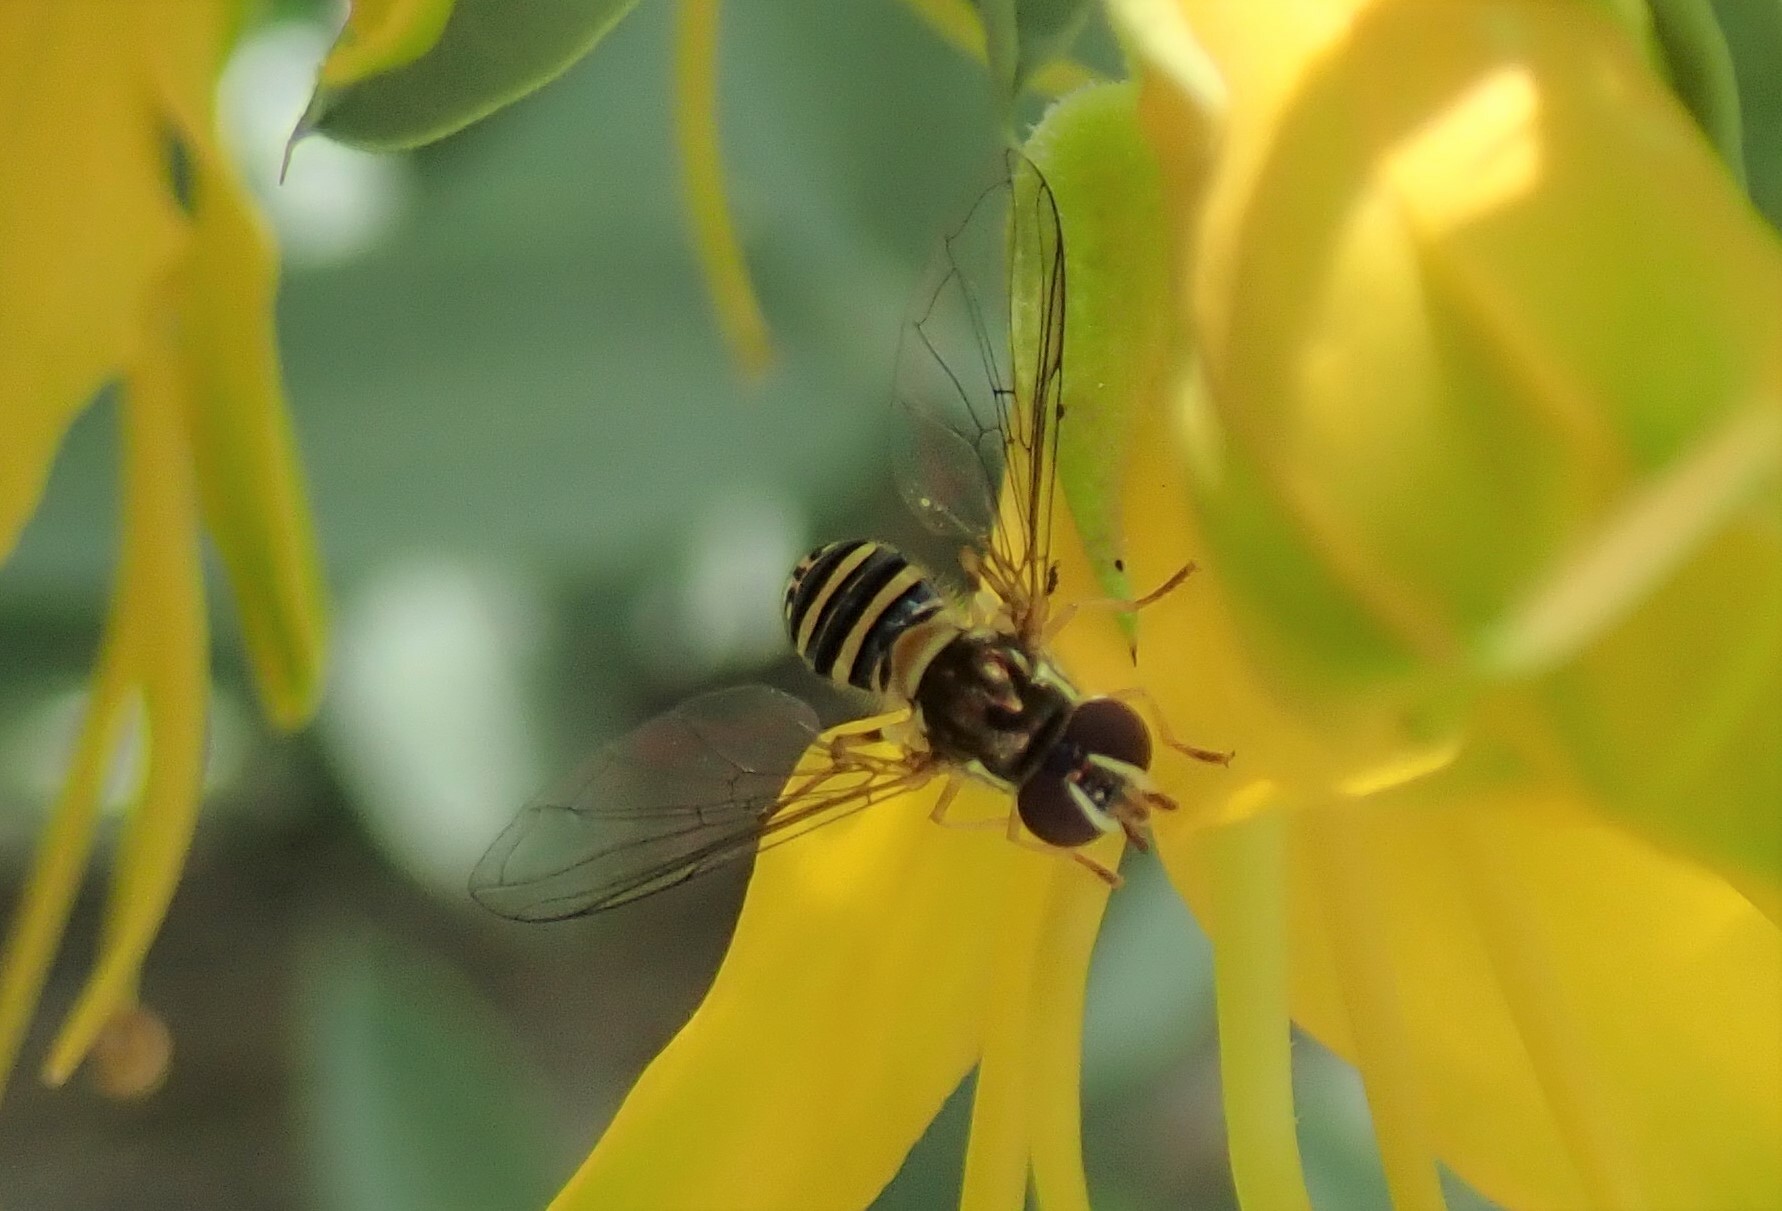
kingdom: Animalia
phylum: Arthropoda
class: Insecta
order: Diptera
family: Syrphidae
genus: Allograpta
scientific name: Allograpta obliqua
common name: Common oblique syrphid
